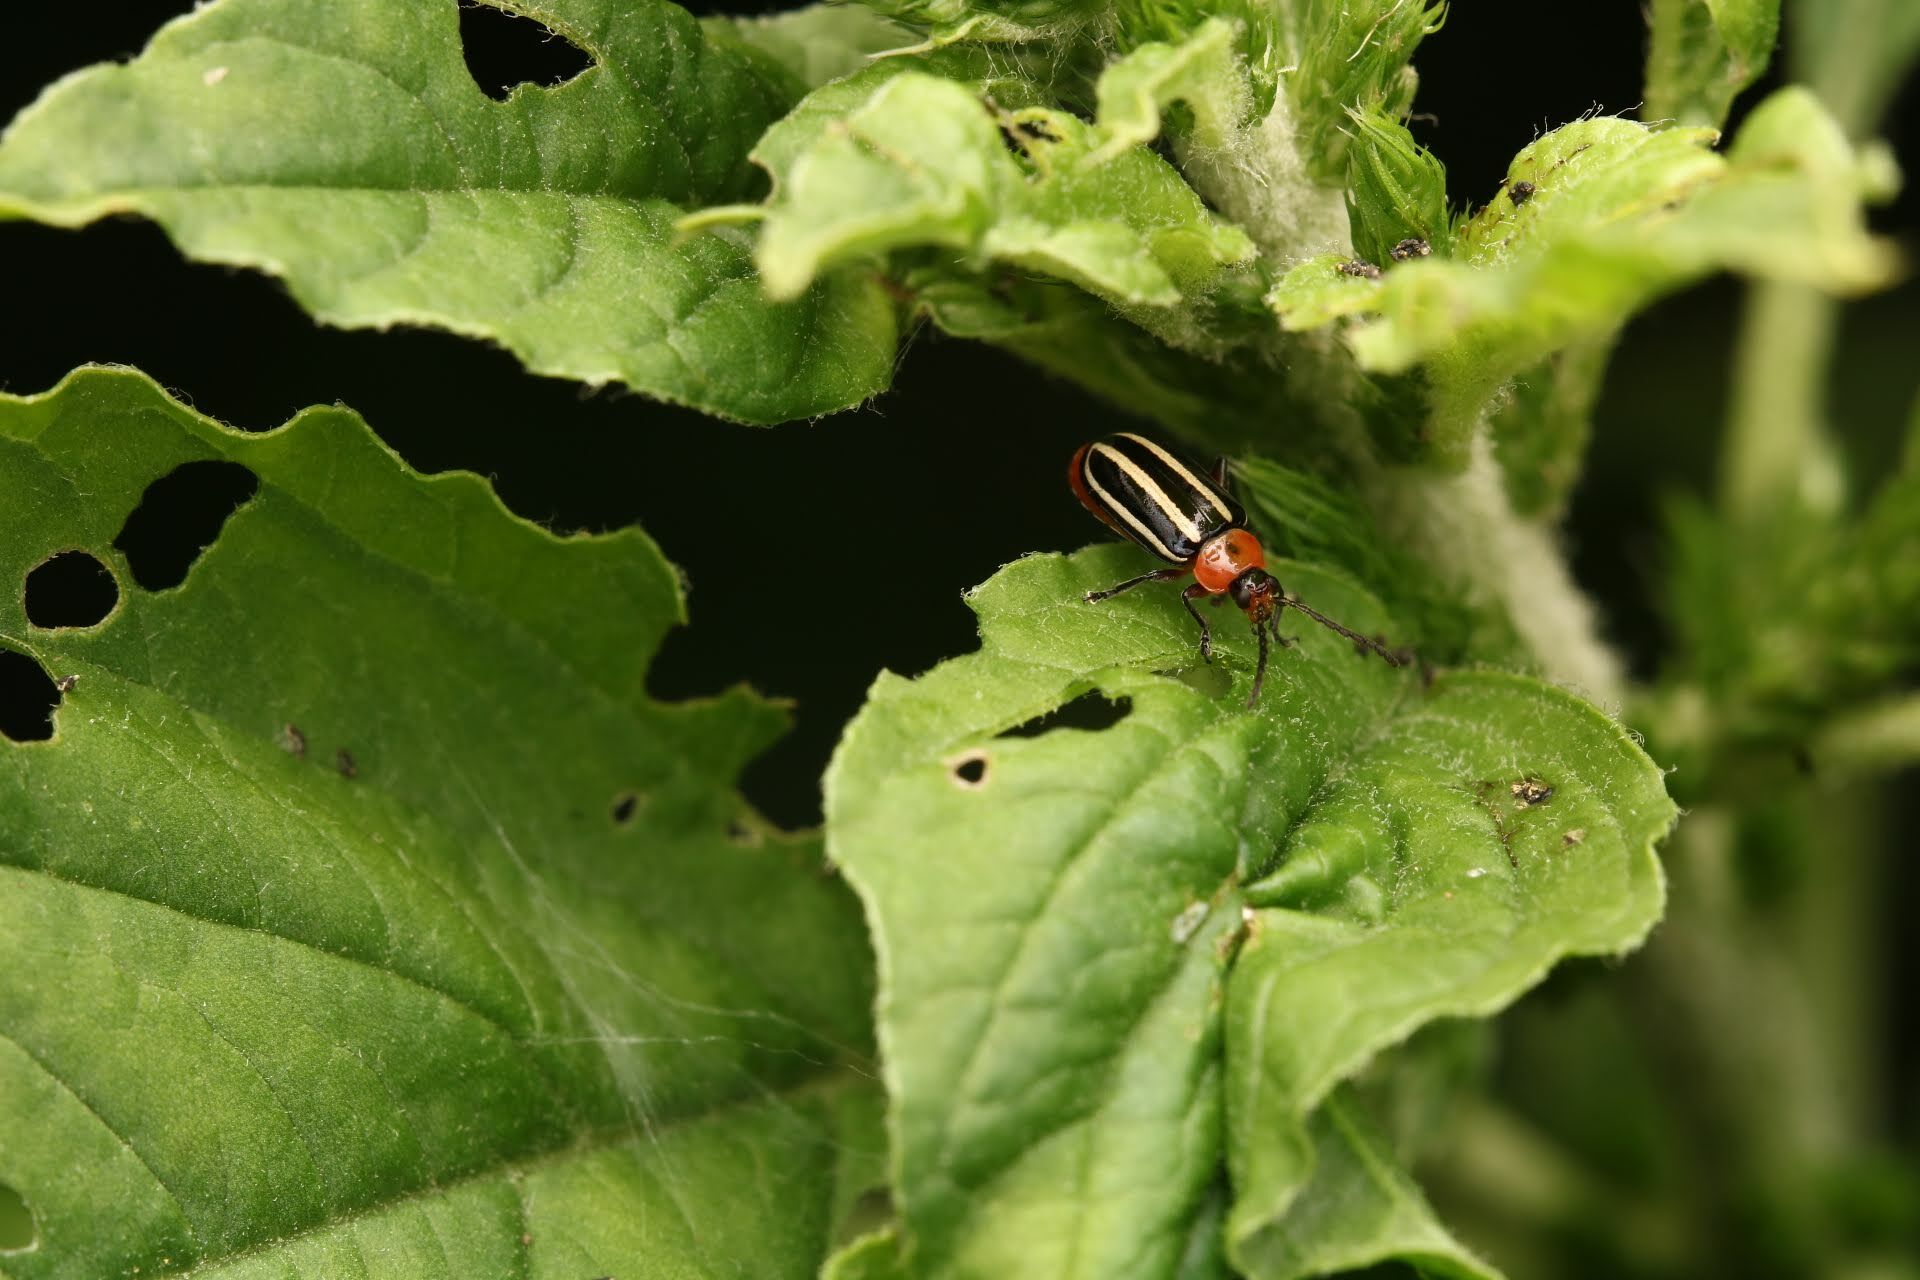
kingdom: Animalia
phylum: Arthropoda
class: Insecta
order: Coleoptera
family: Chrysomelidae
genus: Disonycha
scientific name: Disonycha glabrata
